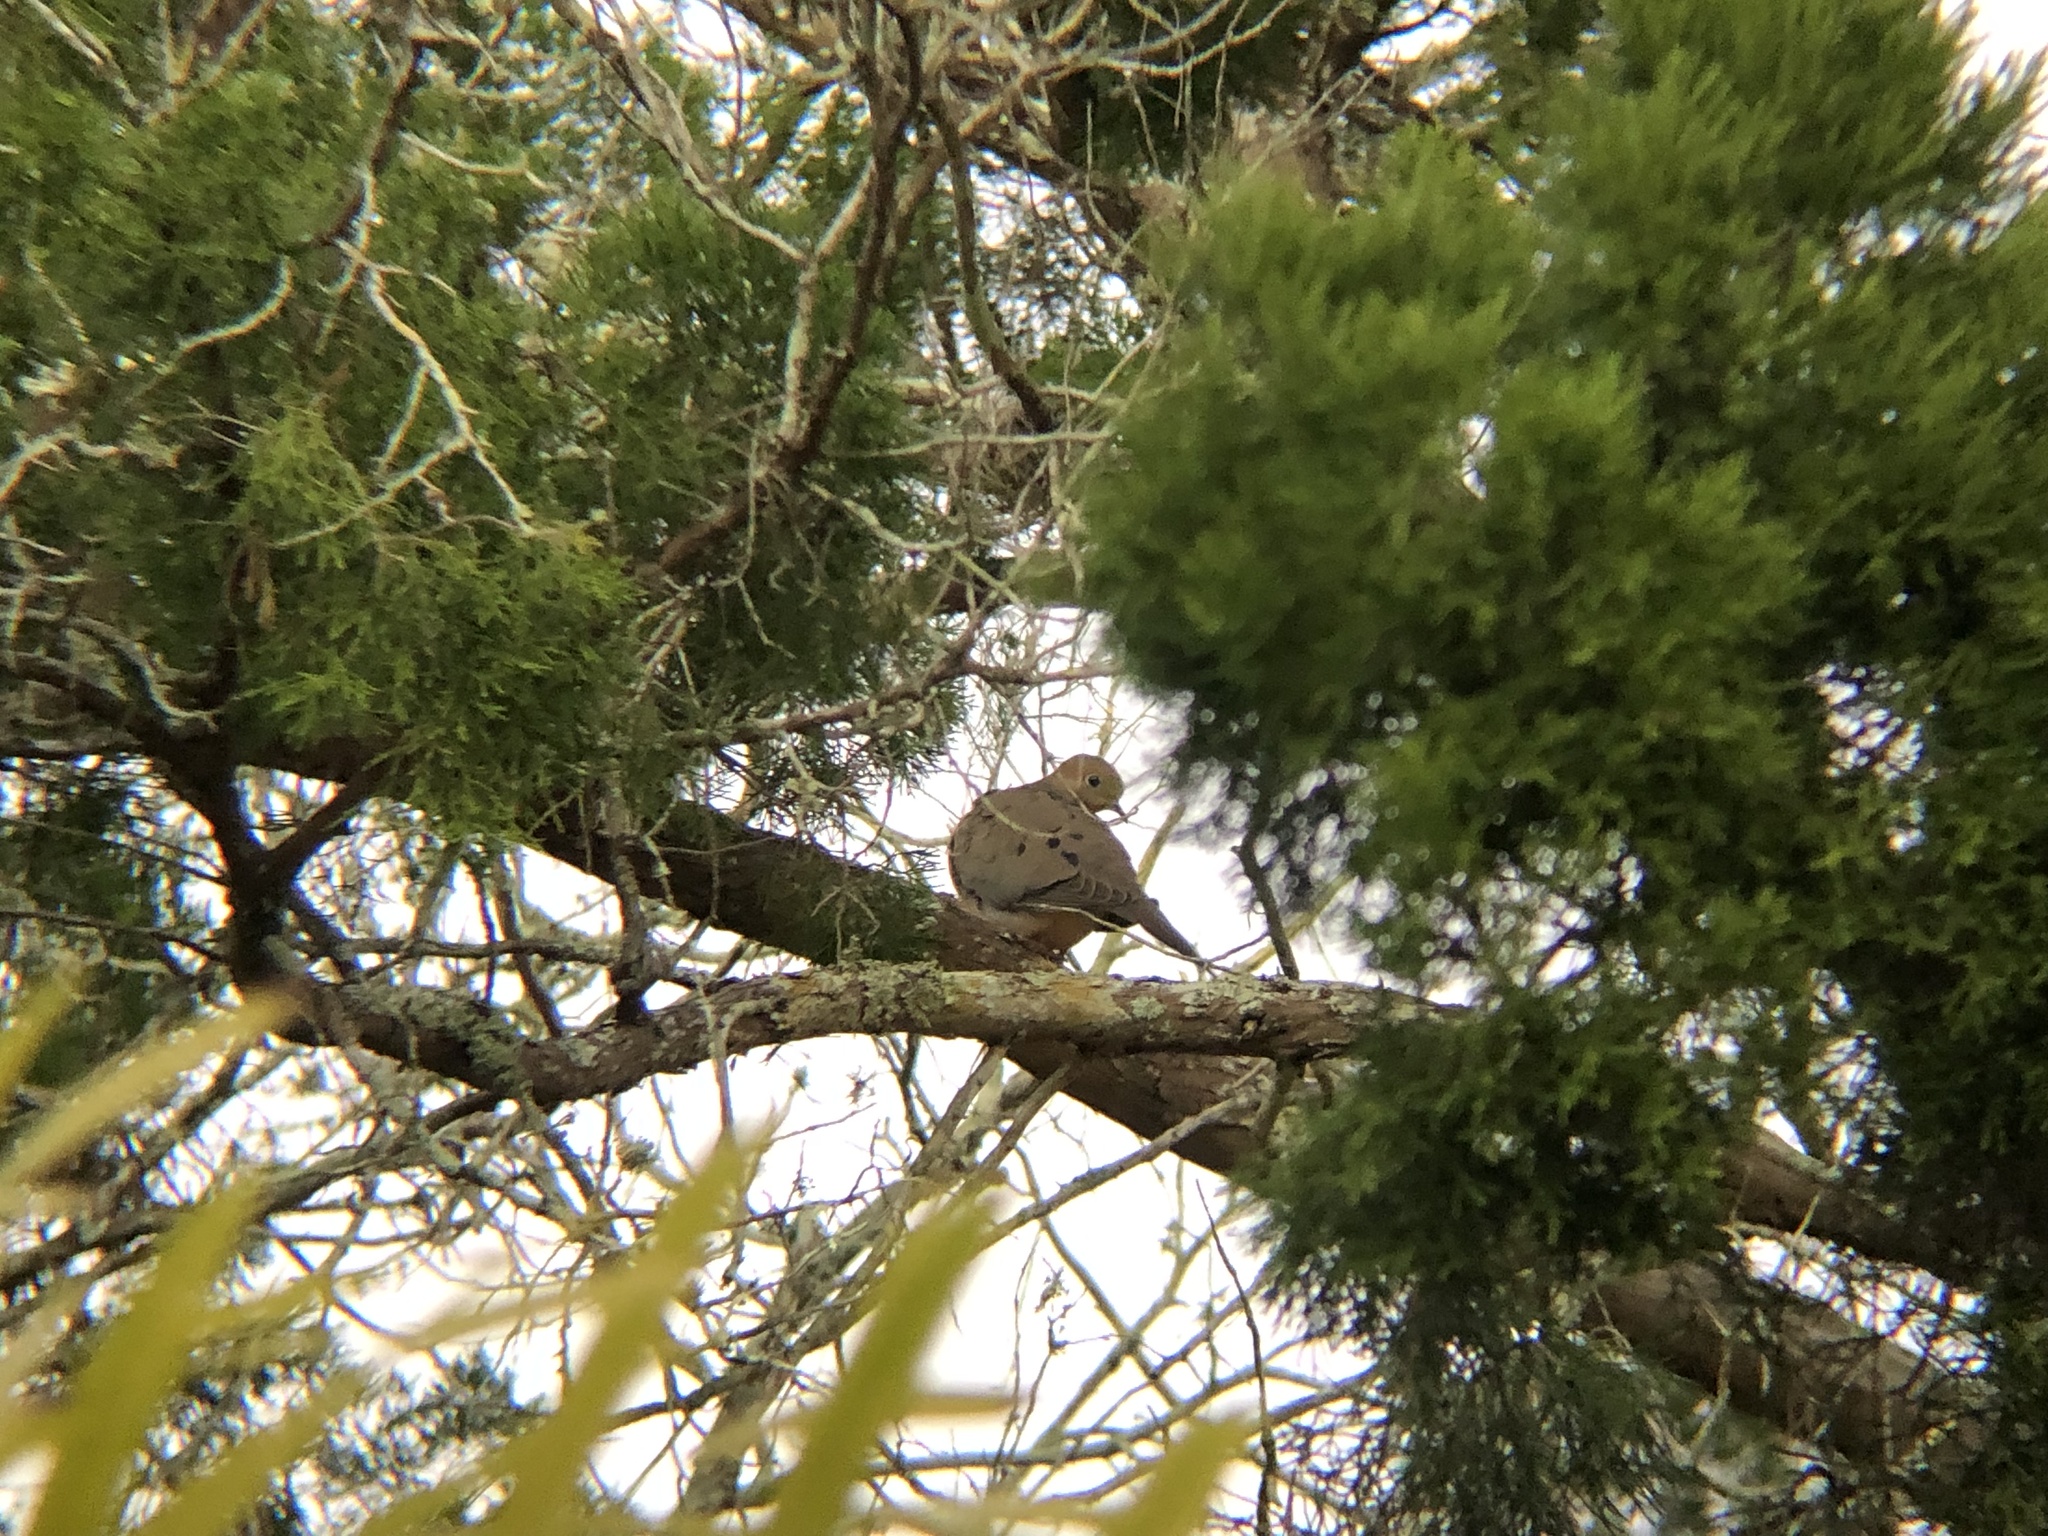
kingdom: Animalia
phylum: Chordata
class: Aves
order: Columbiformes
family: Columbidae
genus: Zenaida
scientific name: Zenaida macroura
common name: Mourning dove
